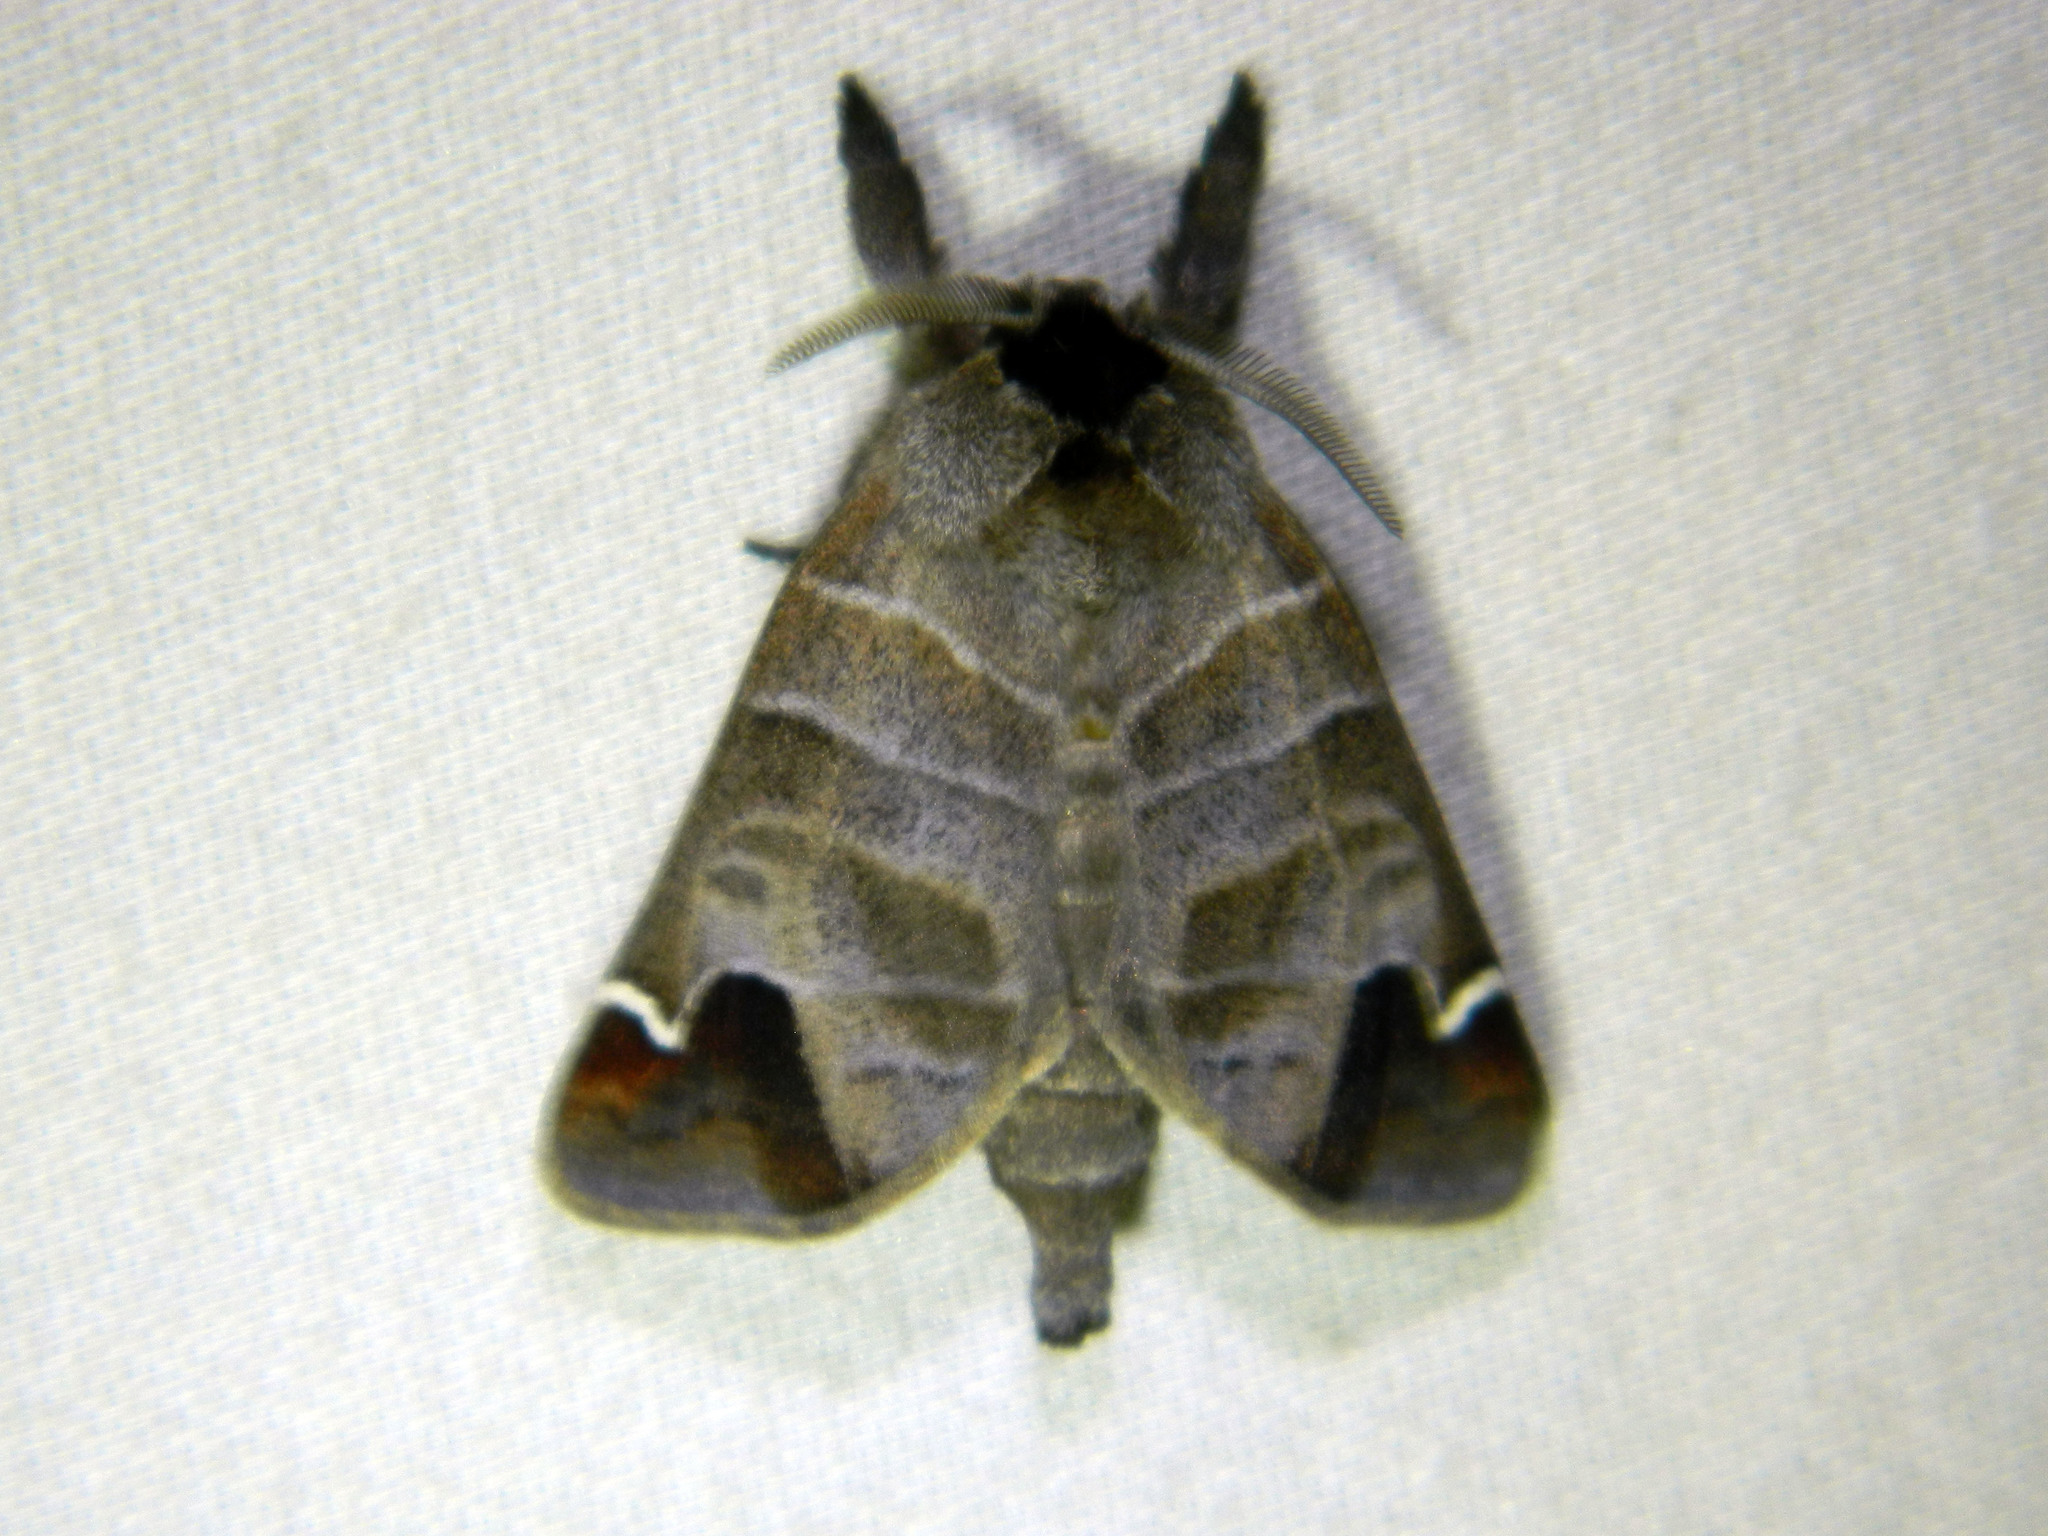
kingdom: Animalia
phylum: Arthropoda
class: Insecta
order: Lepidoptera
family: Notodontidae
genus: Clostera
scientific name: Clostera albosigma
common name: Sigmoid prominent
